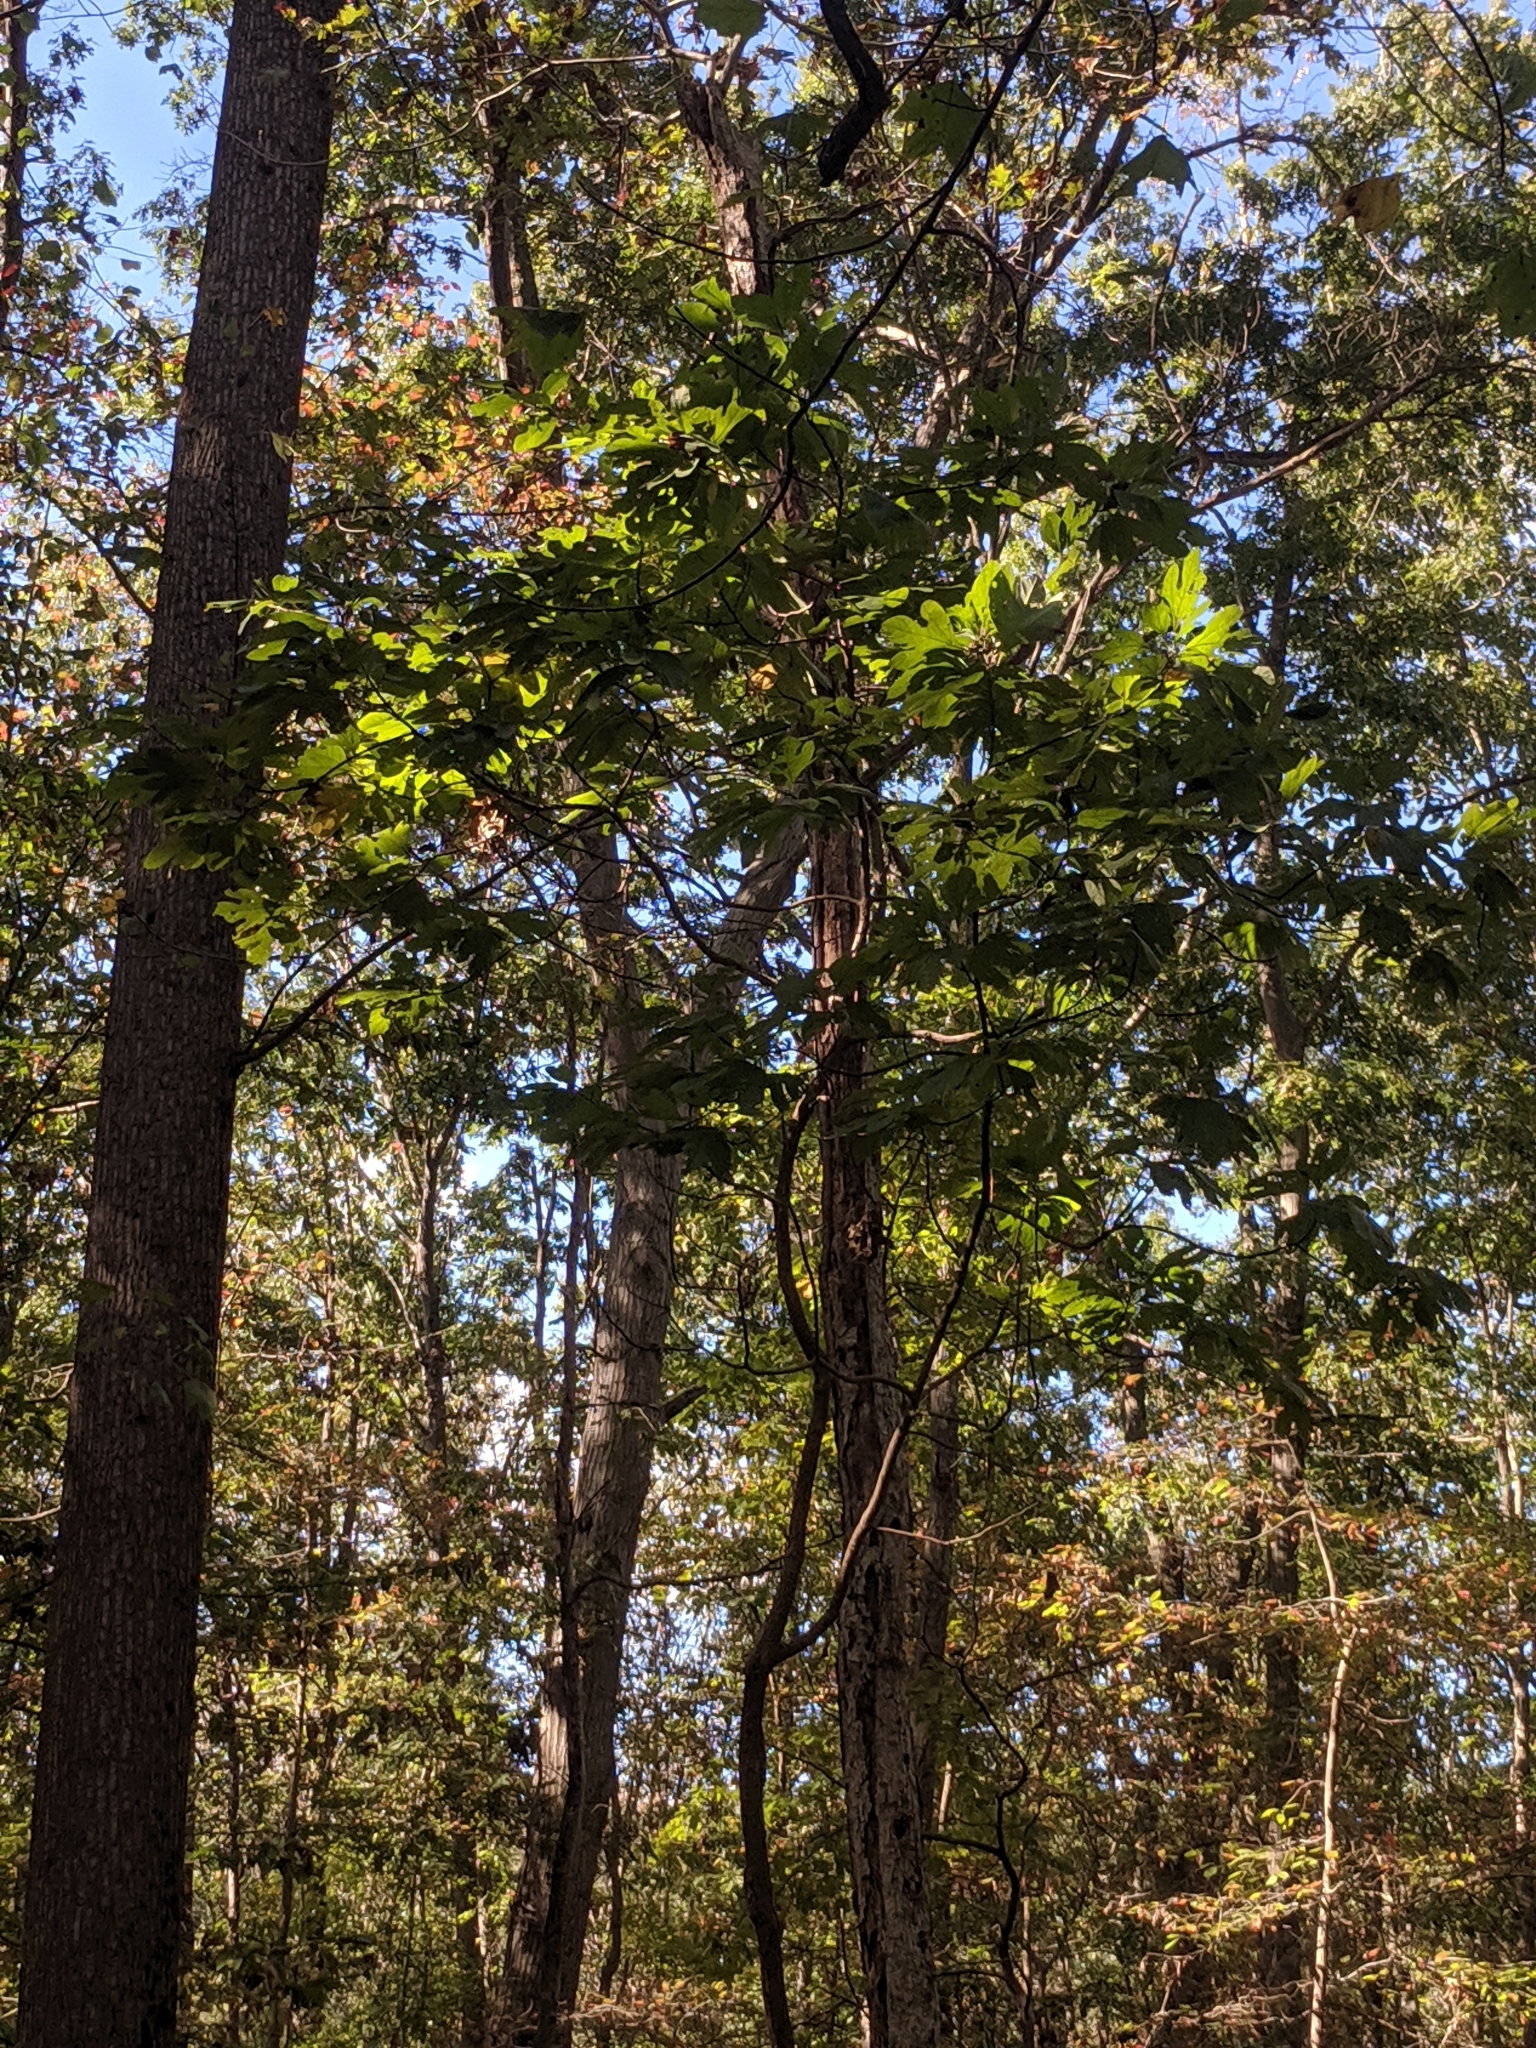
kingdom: Plantae
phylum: Tracheophyta
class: Magnoliopsida
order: Laurales
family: Lauraceae
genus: Sassafras
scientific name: Sassafras albidum
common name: Sassafras
